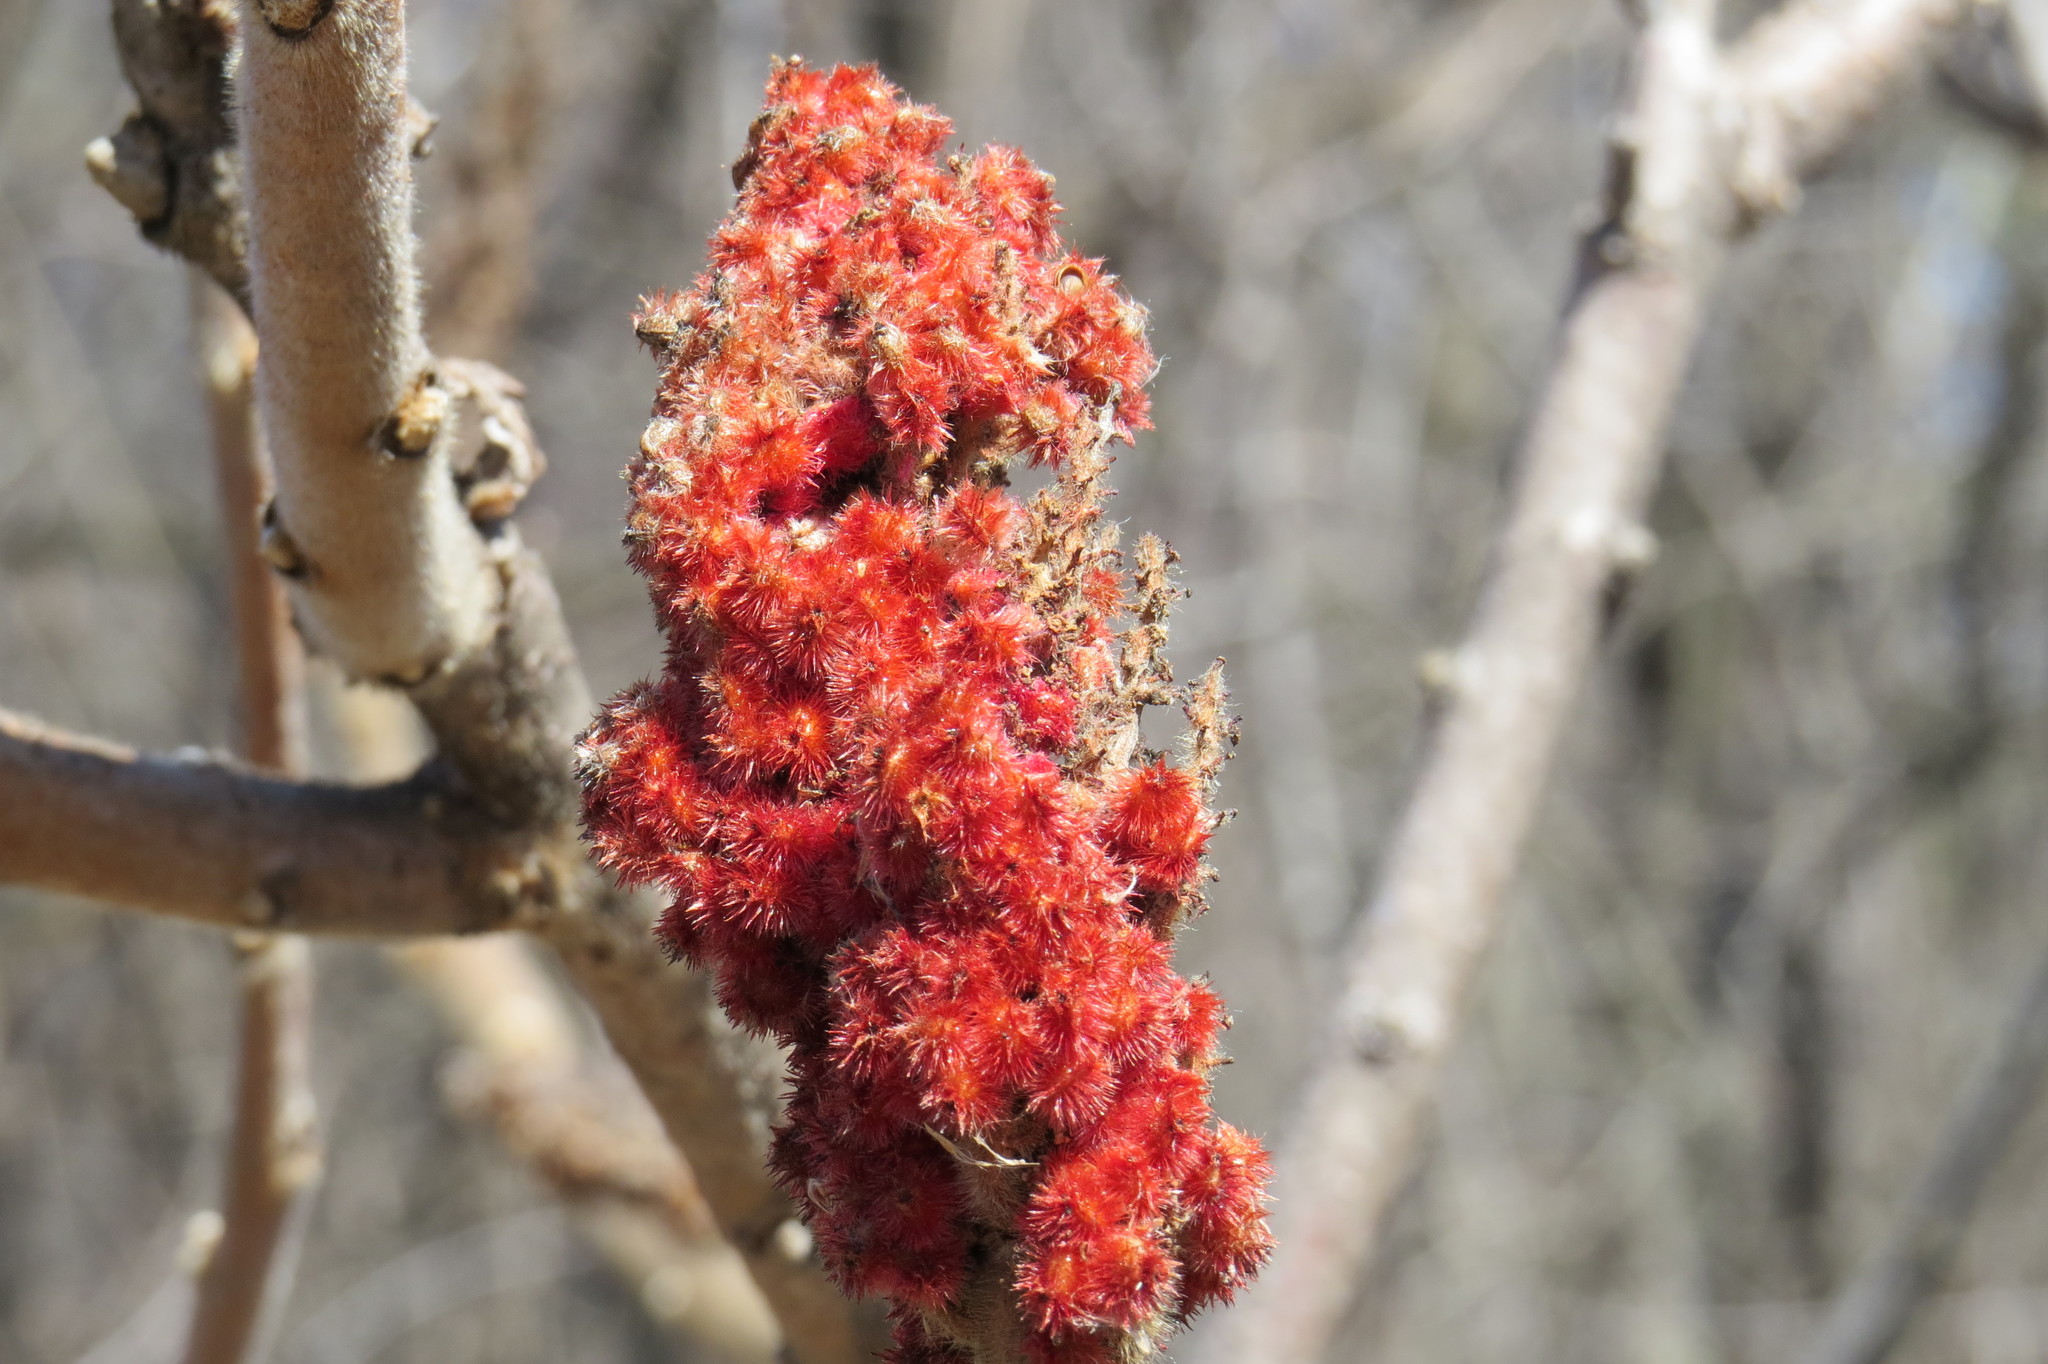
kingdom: Plantae
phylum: Tracheophyta
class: Magnoliopsida
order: Sapindales
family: Anacardiaceae
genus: Rhus
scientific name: Rhus typhina
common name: Staghorn sumac
